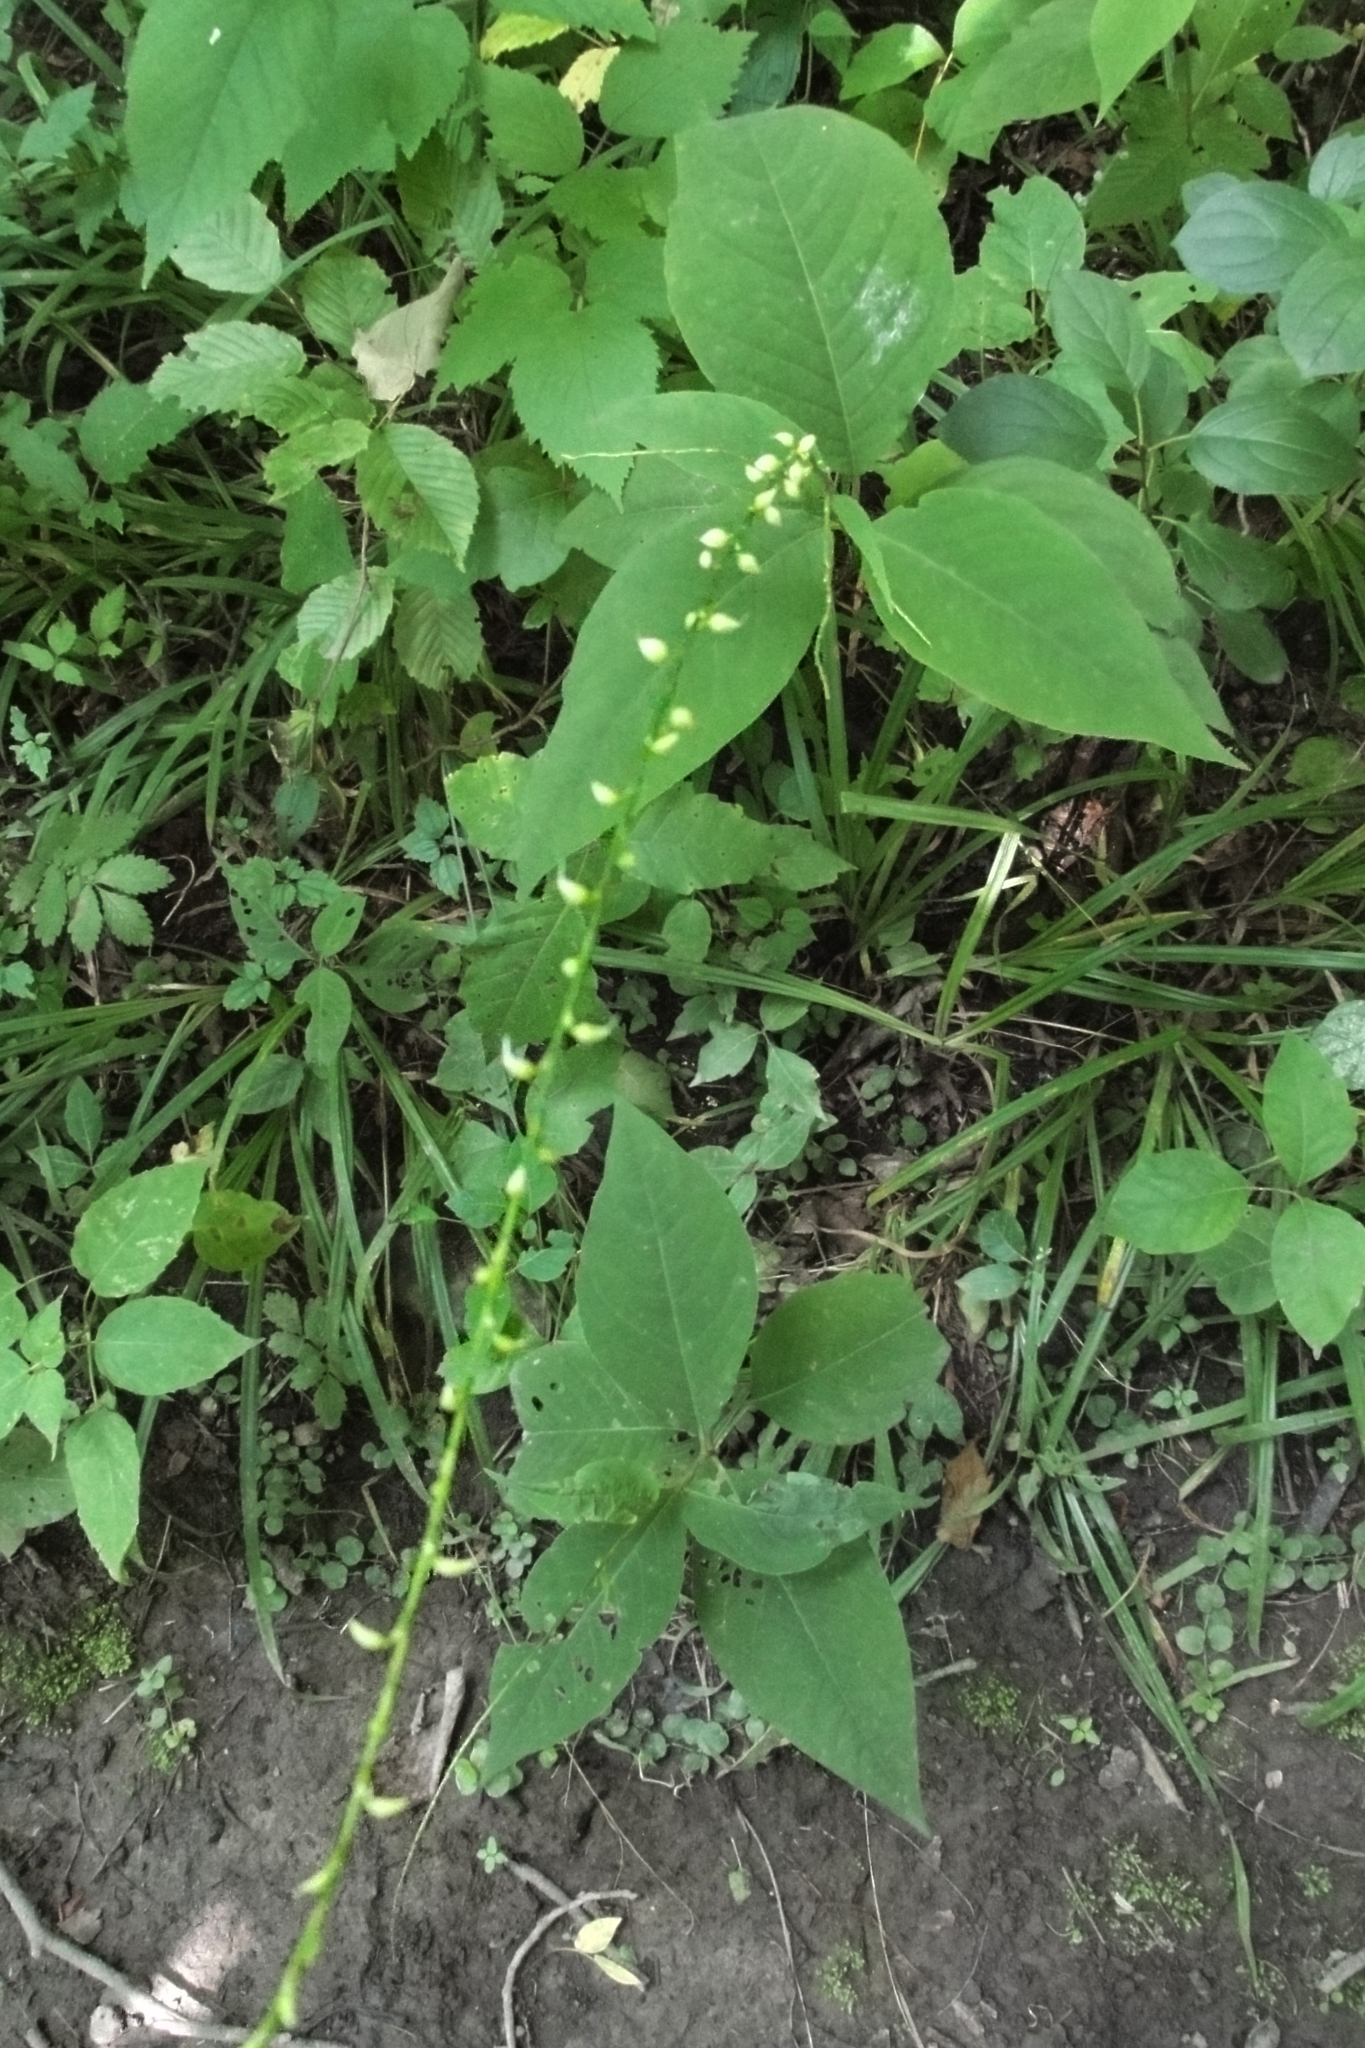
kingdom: Plantae
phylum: Tracheophyta
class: Magnoliopsida
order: Caryophyllales
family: Polygonaceae
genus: Persicaria
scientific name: Persicaria virginiana
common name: Jumpseed
